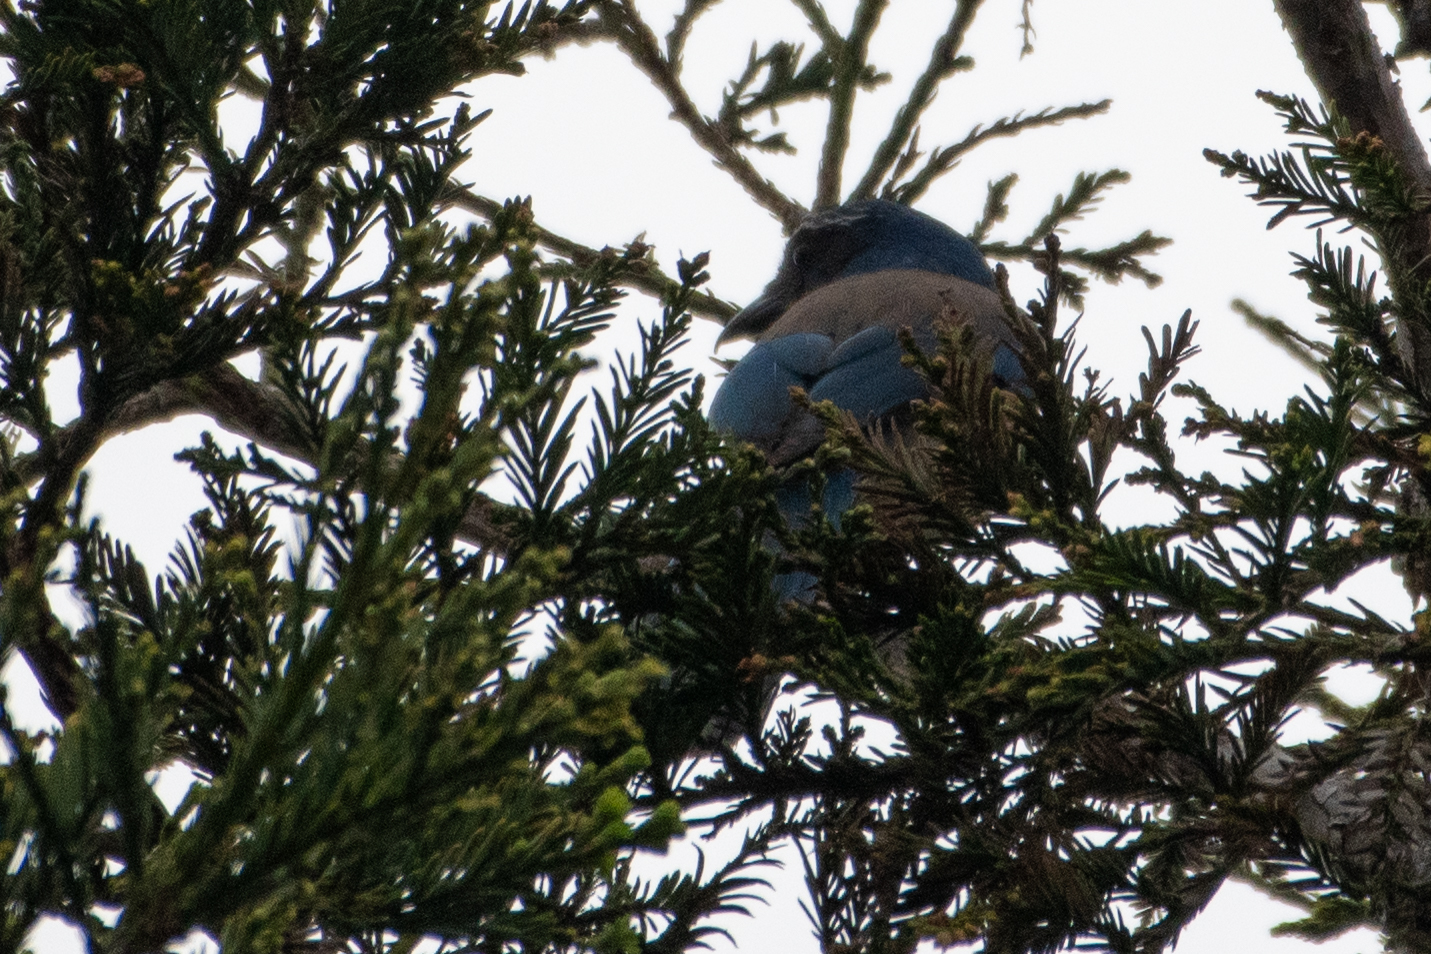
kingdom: Animalia
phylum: Chordata
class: Aves
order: Passeriformes
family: Corvidae
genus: Aphelocoma
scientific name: Aphelocoma californica
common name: California scrub-jay
